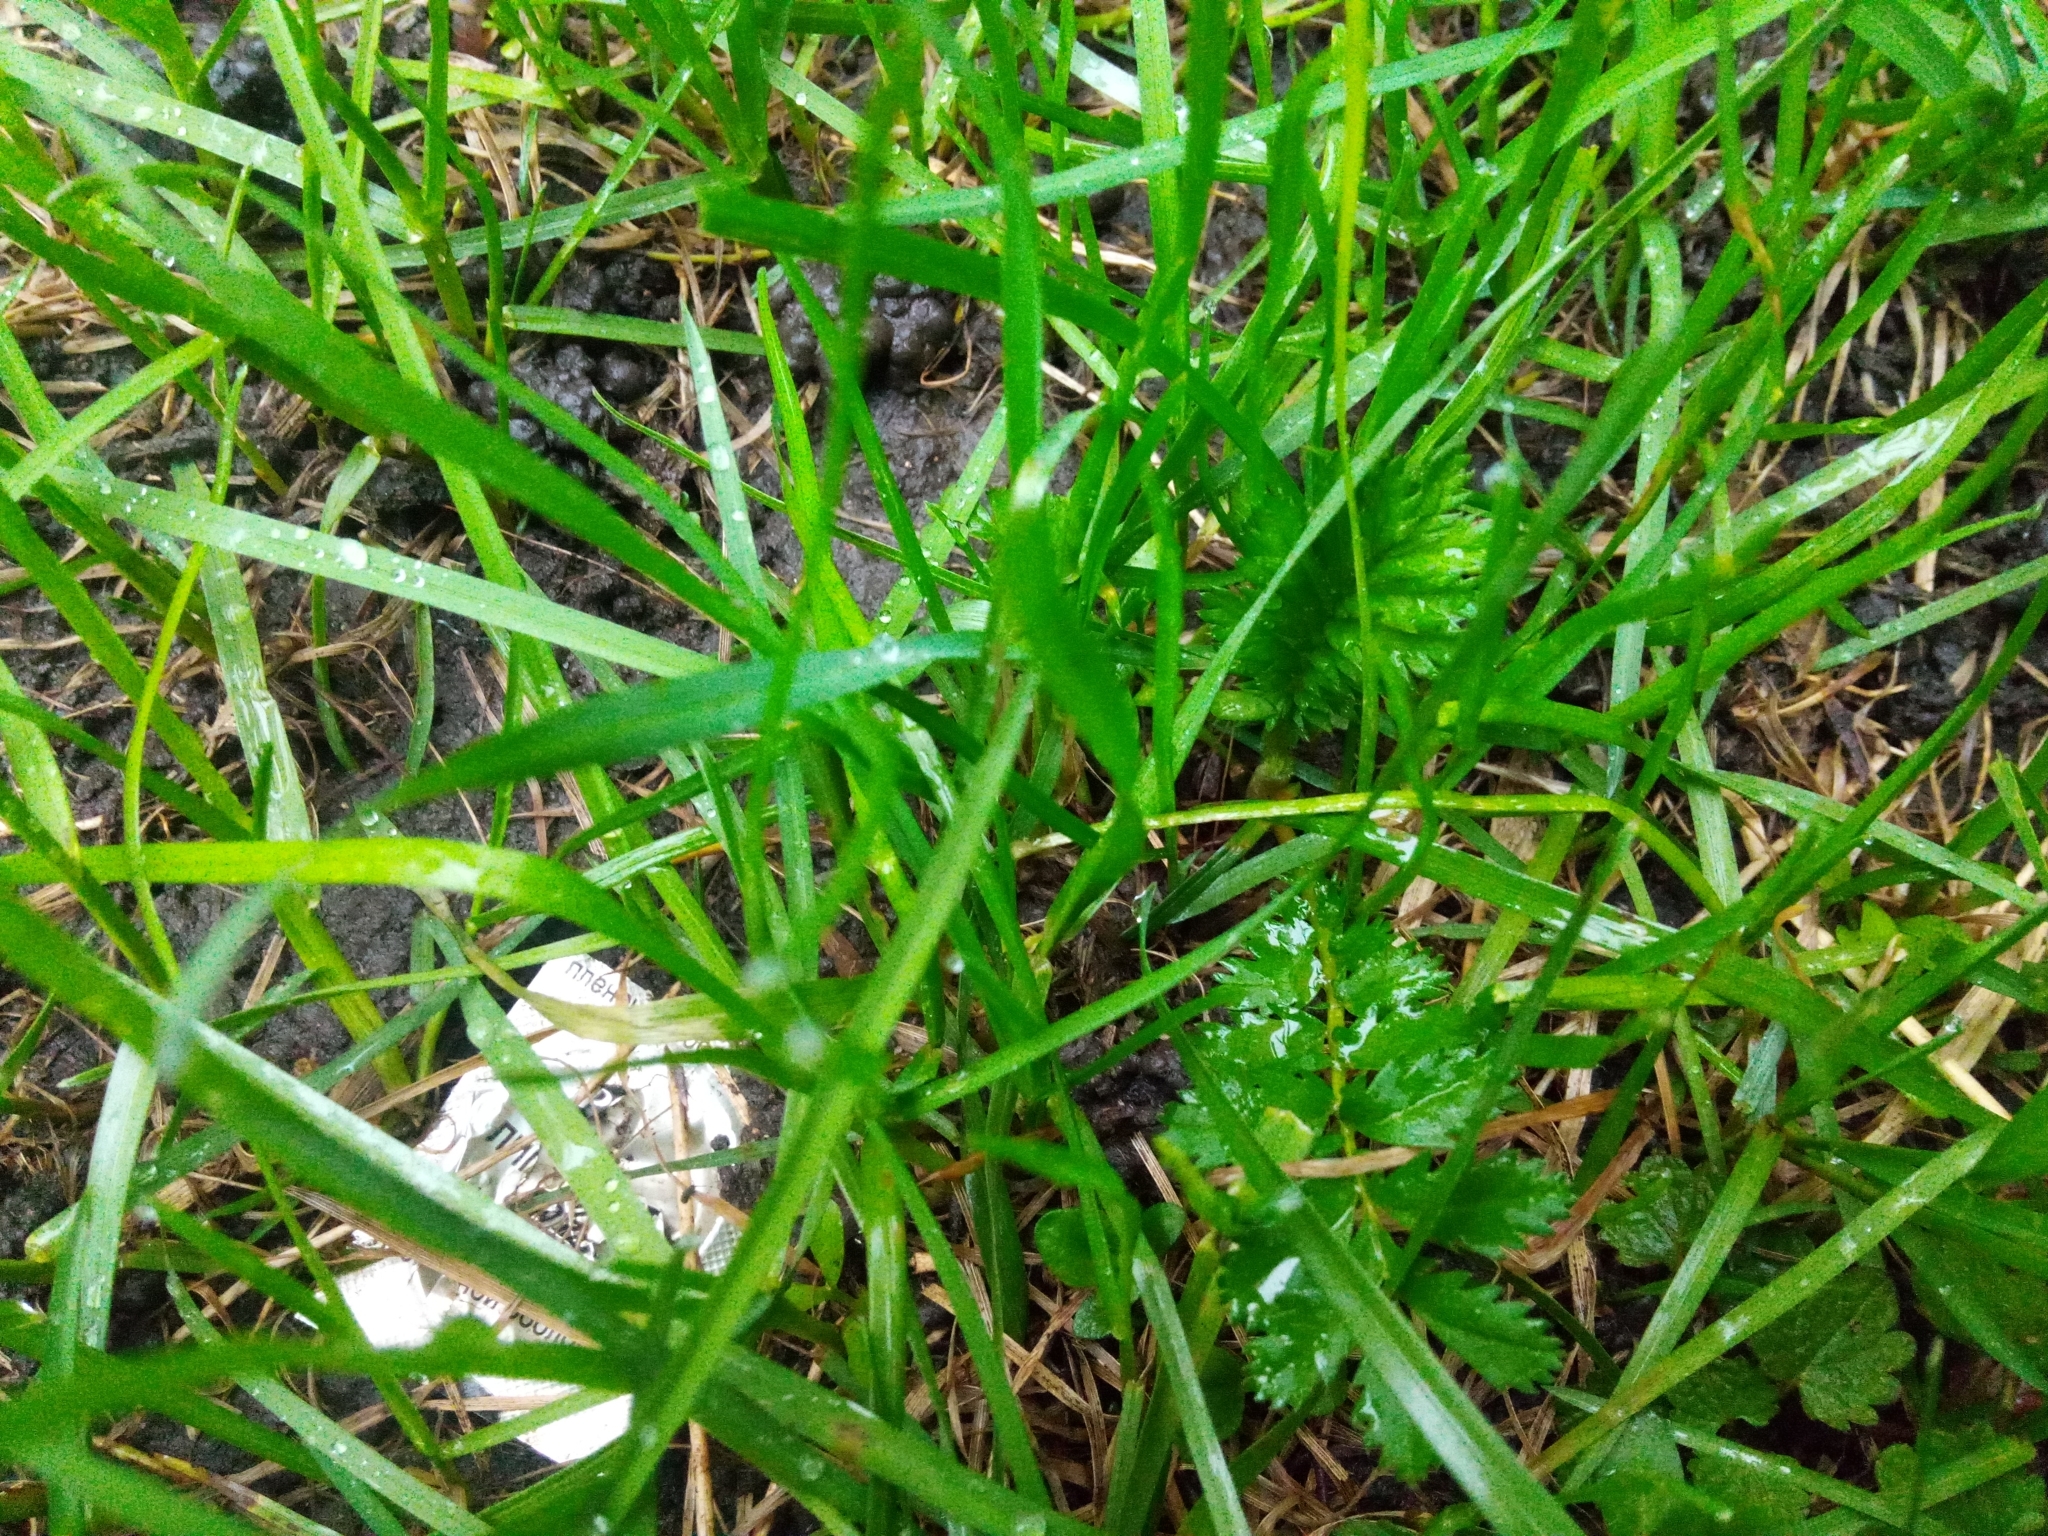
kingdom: Plantae
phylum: Tracheophyta
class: Magnoliopsida
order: Rosales
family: Rosaceae
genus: Argentina
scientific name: Argentina anserina
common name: Common silverweed
